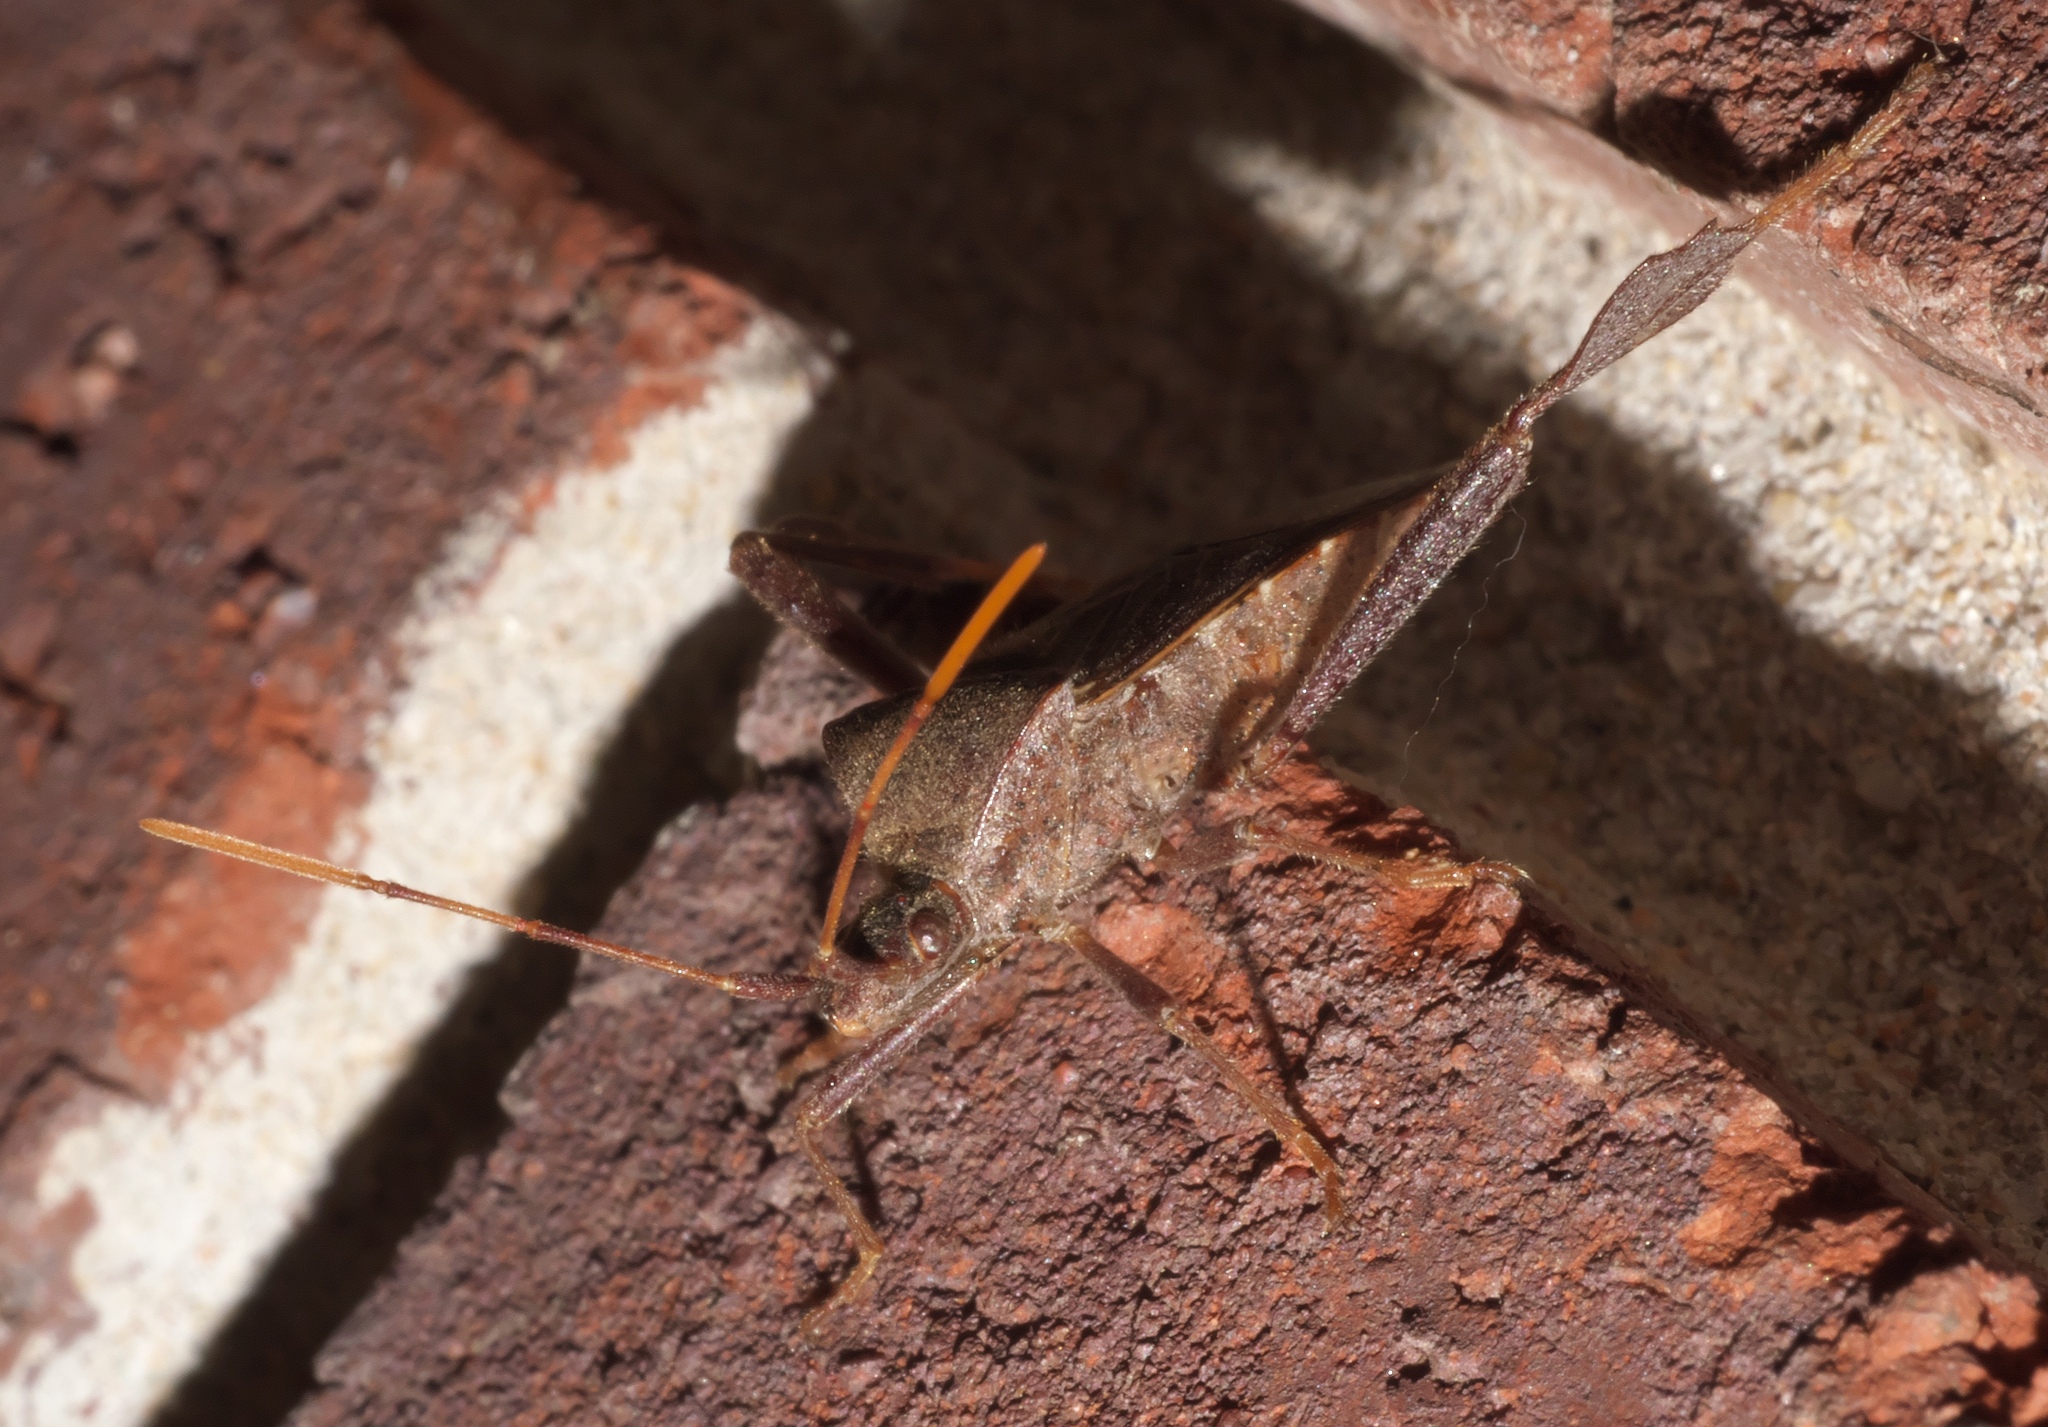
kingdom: Animalia
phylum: Arthropoda
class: Insecta
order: Hemiptera
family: Coreidae
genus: Leptoglossus
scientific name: Leptoglossus oppositus
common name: Northern leaf-footed bug
